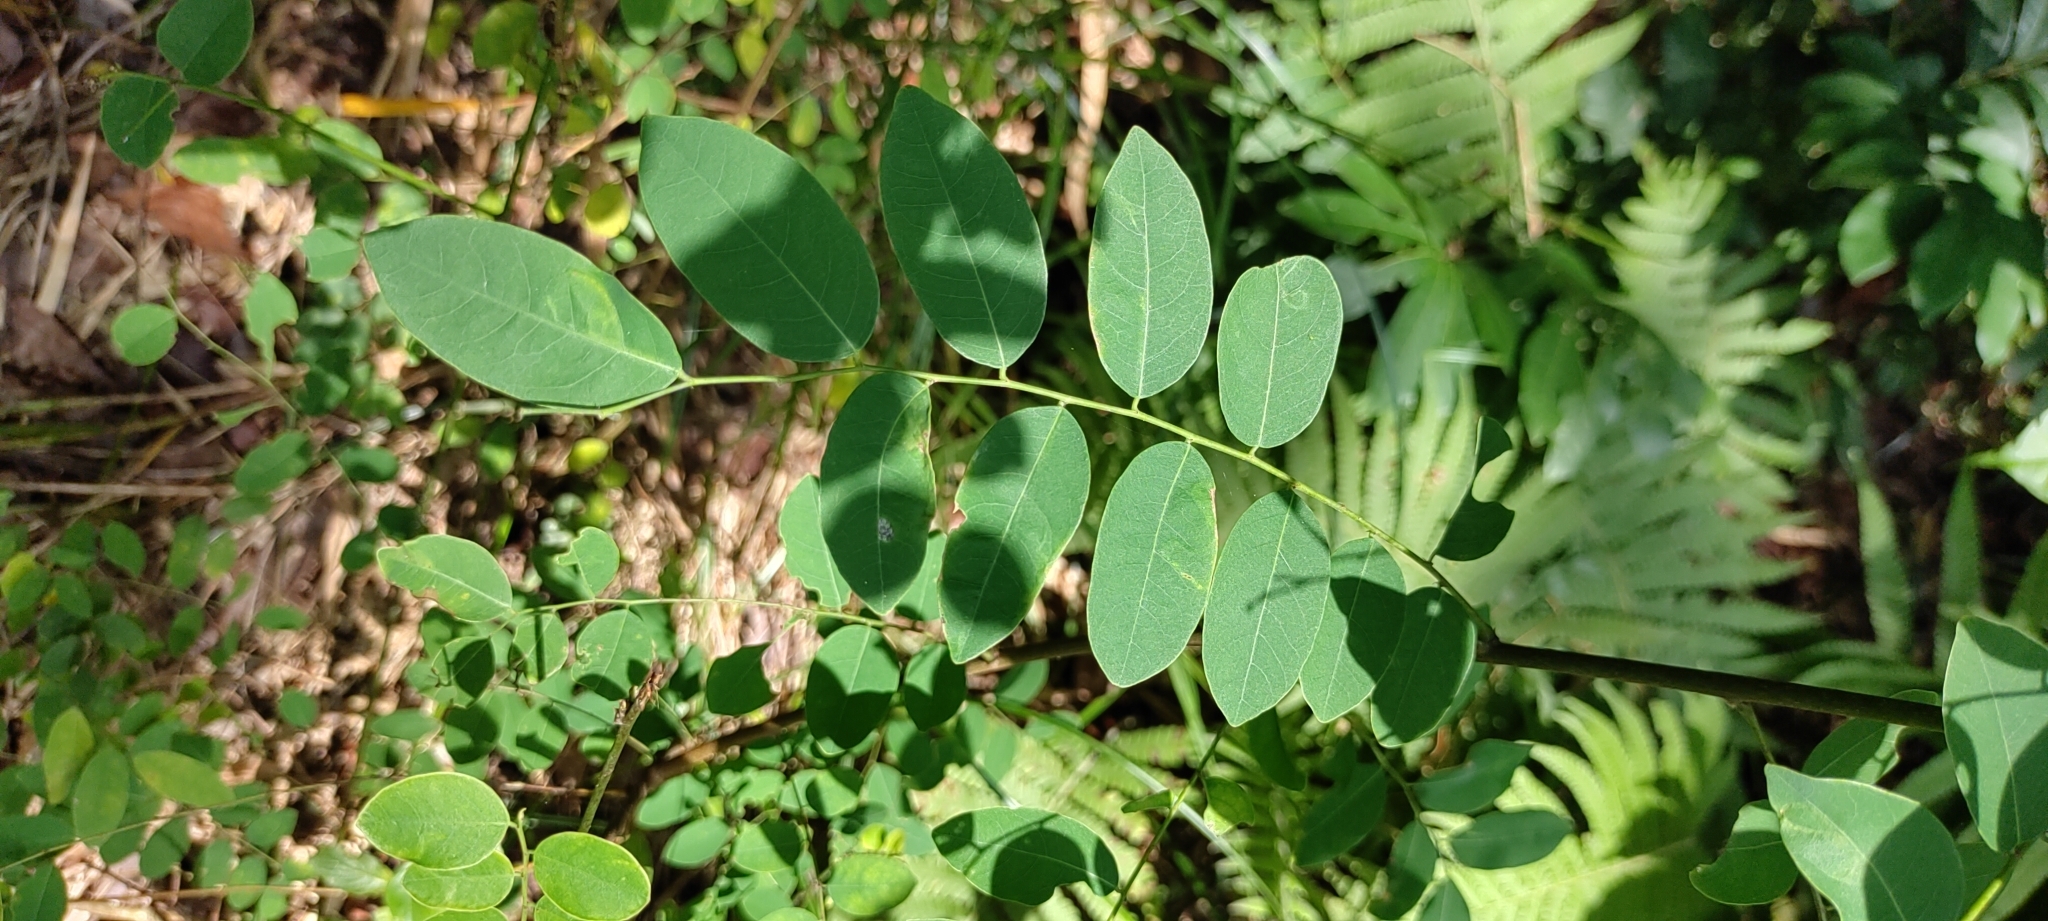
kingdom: Plantae
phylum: Tracheophyta
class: Magnoliopsida
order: Malpighiales
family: Phyllanthaceae
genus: Phyllanthus
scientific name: Phyllanthus reticulatus
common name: Potato bush
